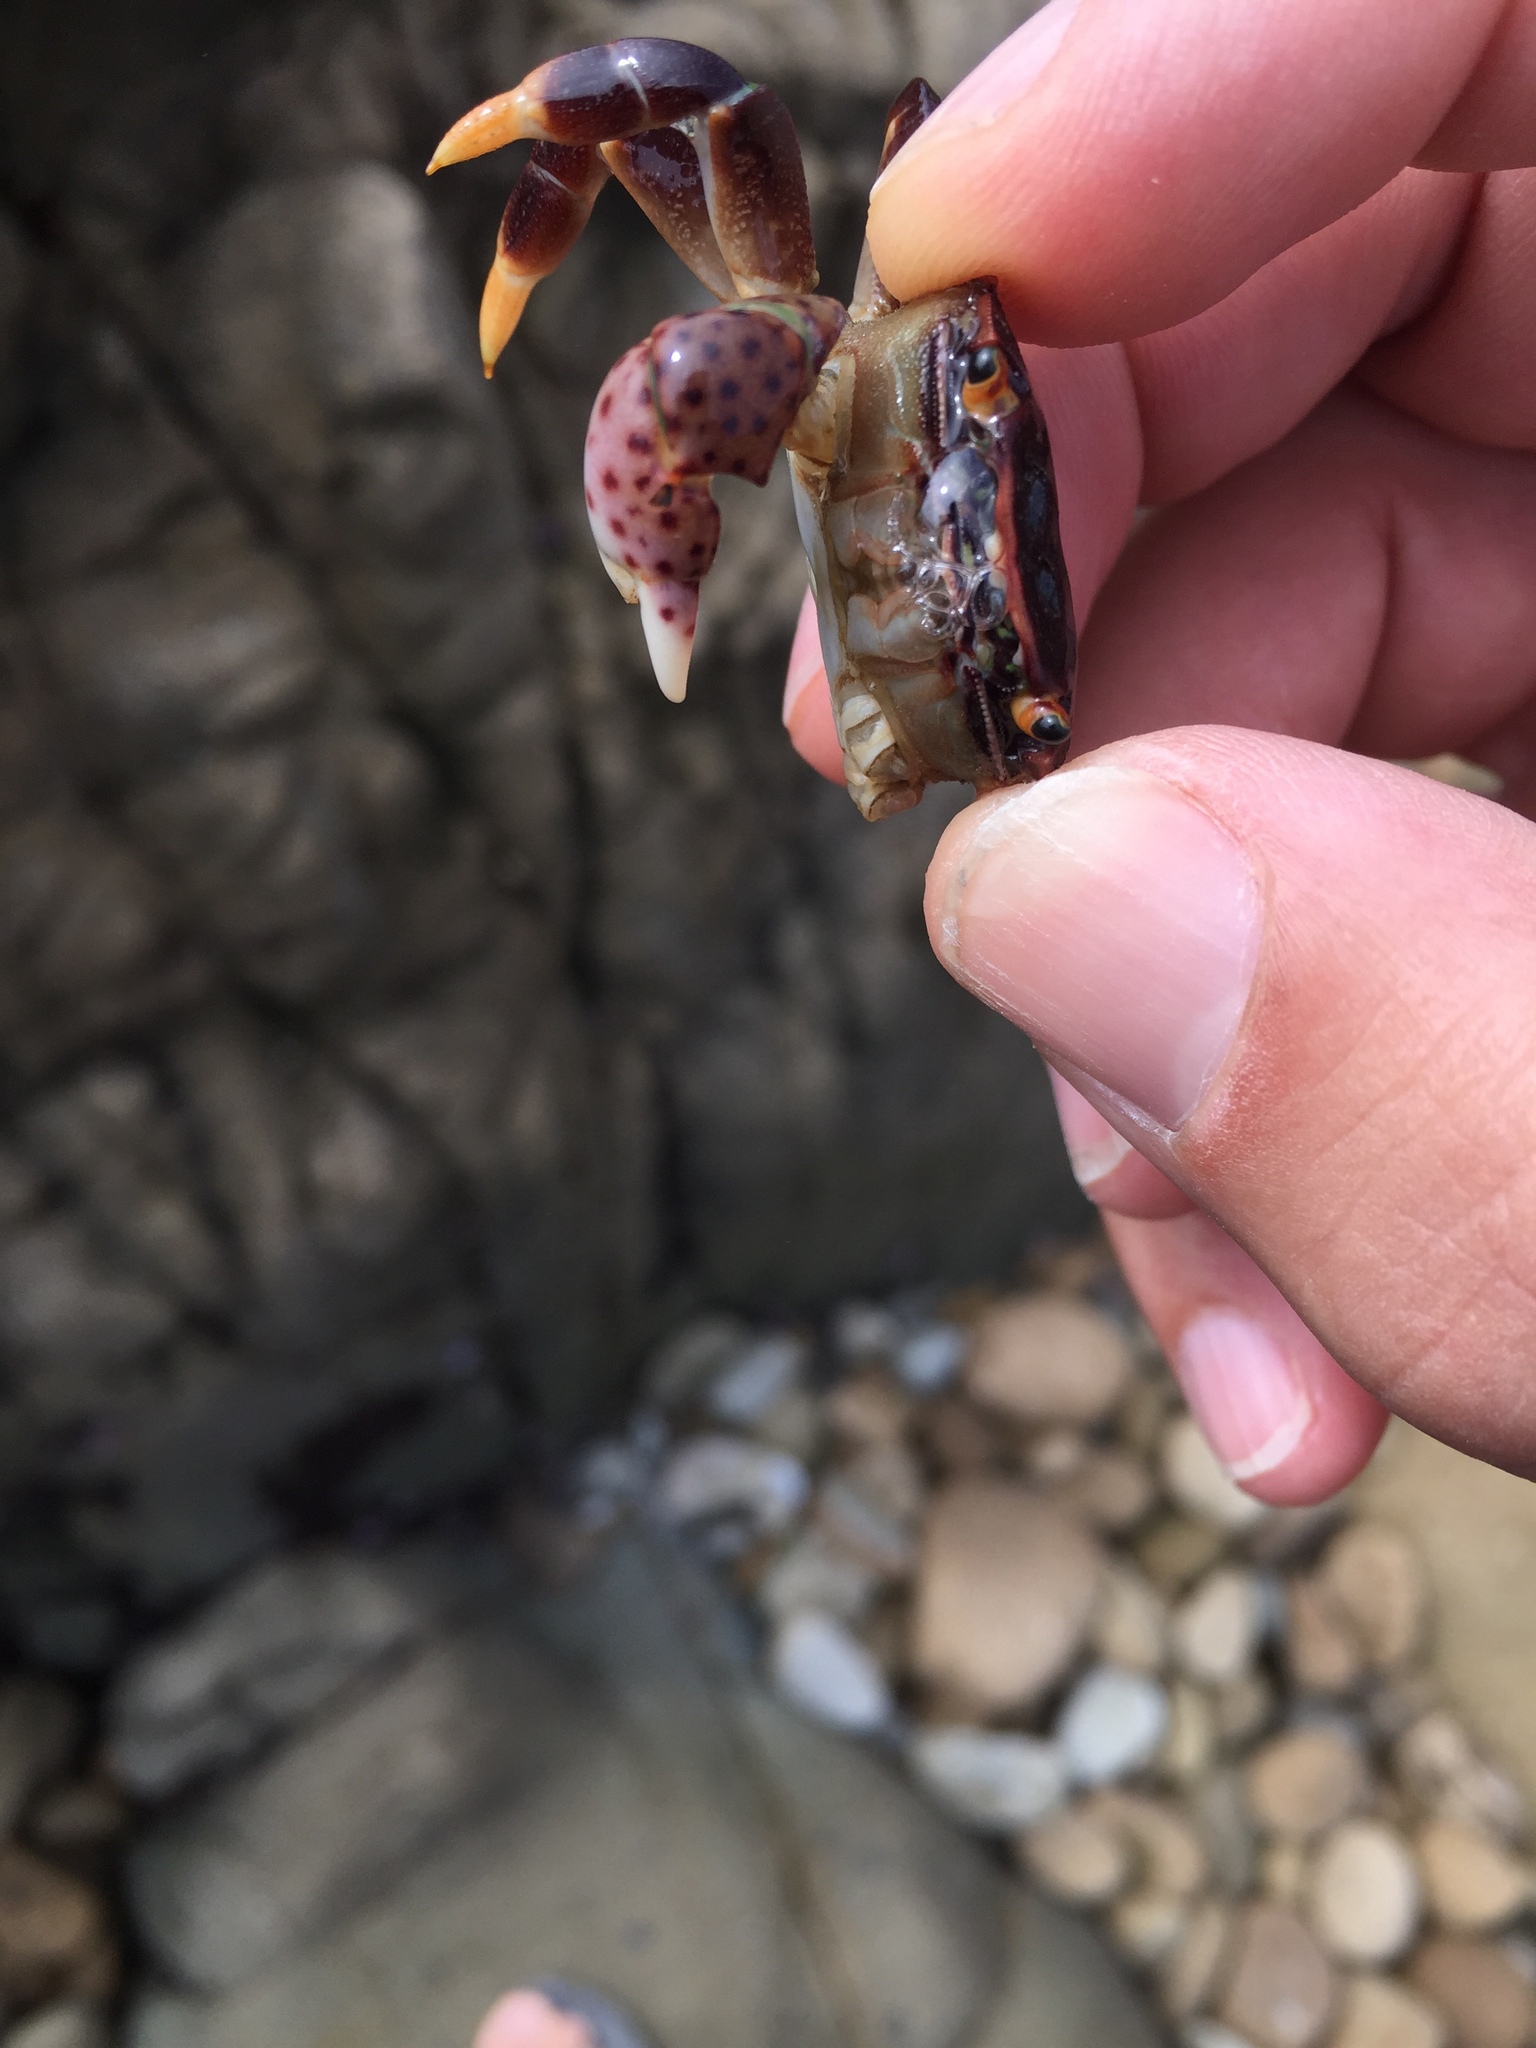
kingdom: Animalia
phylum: Arthropoda
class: Malacostraca
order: Decapoda
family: Varunidae
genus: Hemigrapsus
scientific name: Hemigrapsus nudus
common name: Purple shore crab
